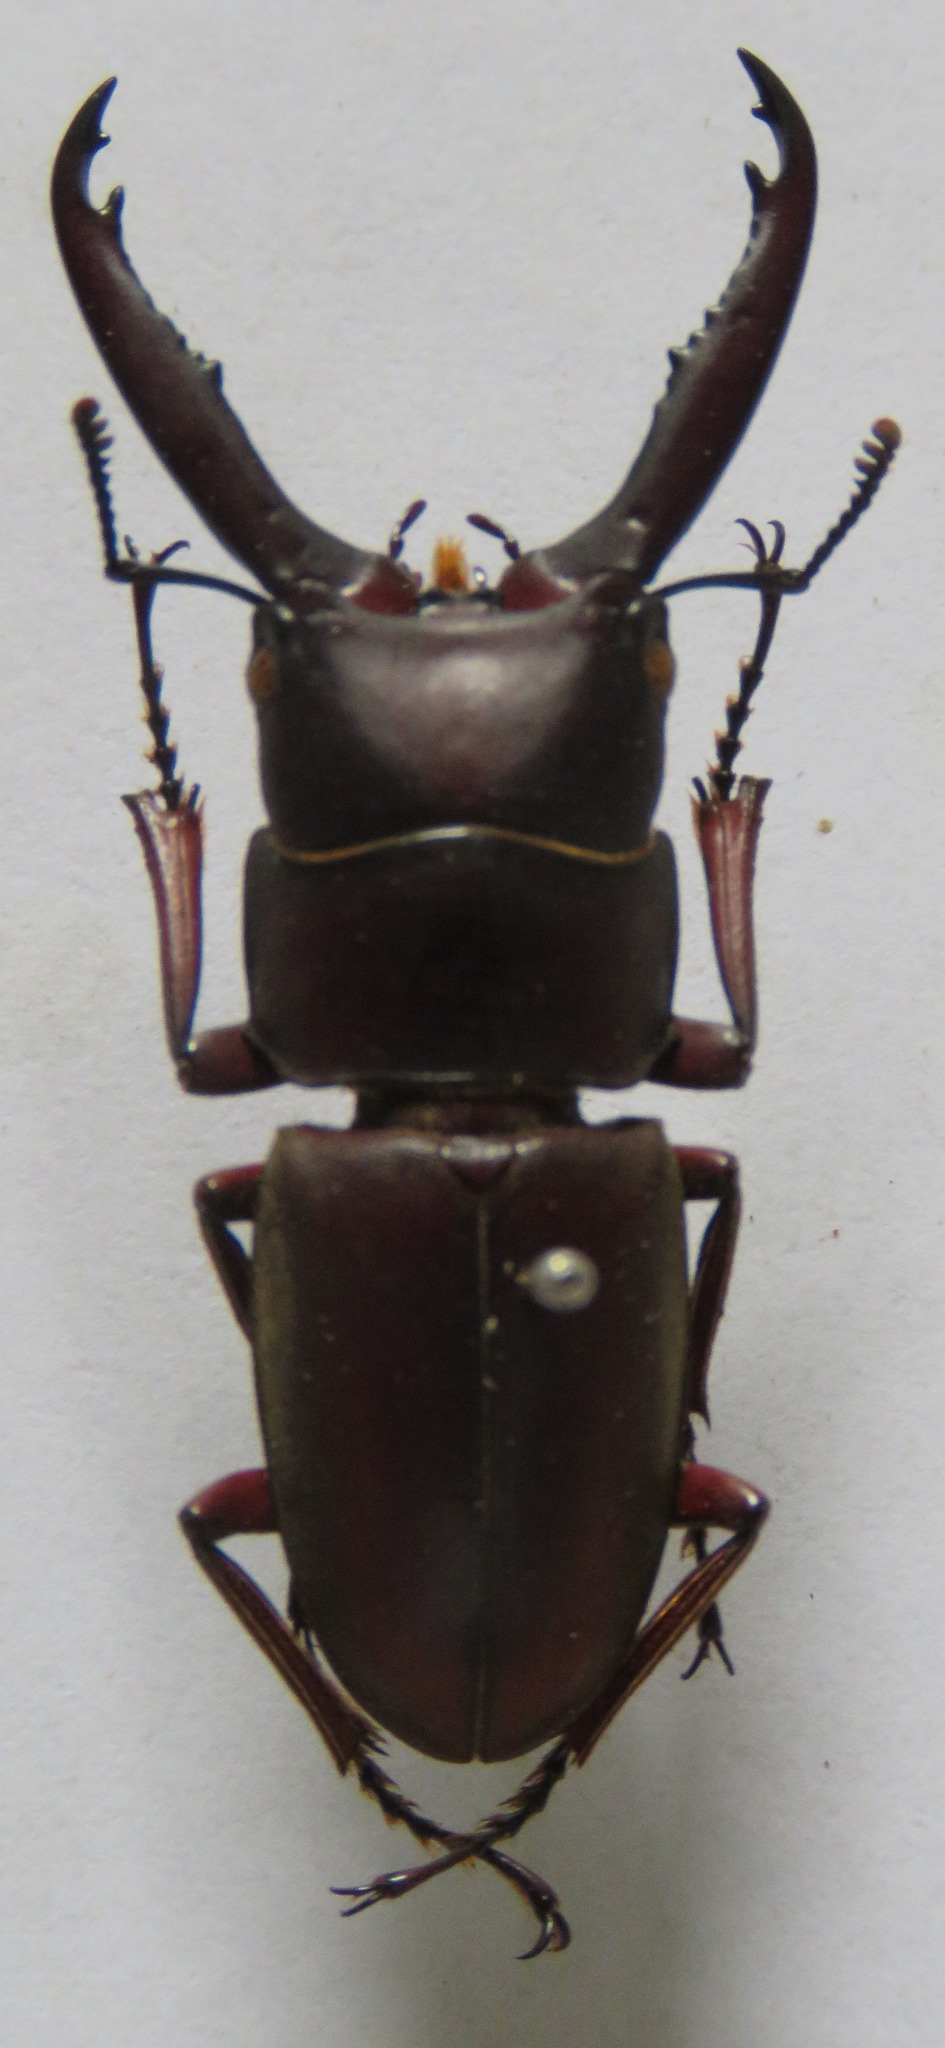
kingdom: Animalia
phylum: Arthropoda
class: Insecta
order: Coleoptera
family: Lucanidae
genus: Prosopocoilus
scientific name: Prosopocoilus mysticus
